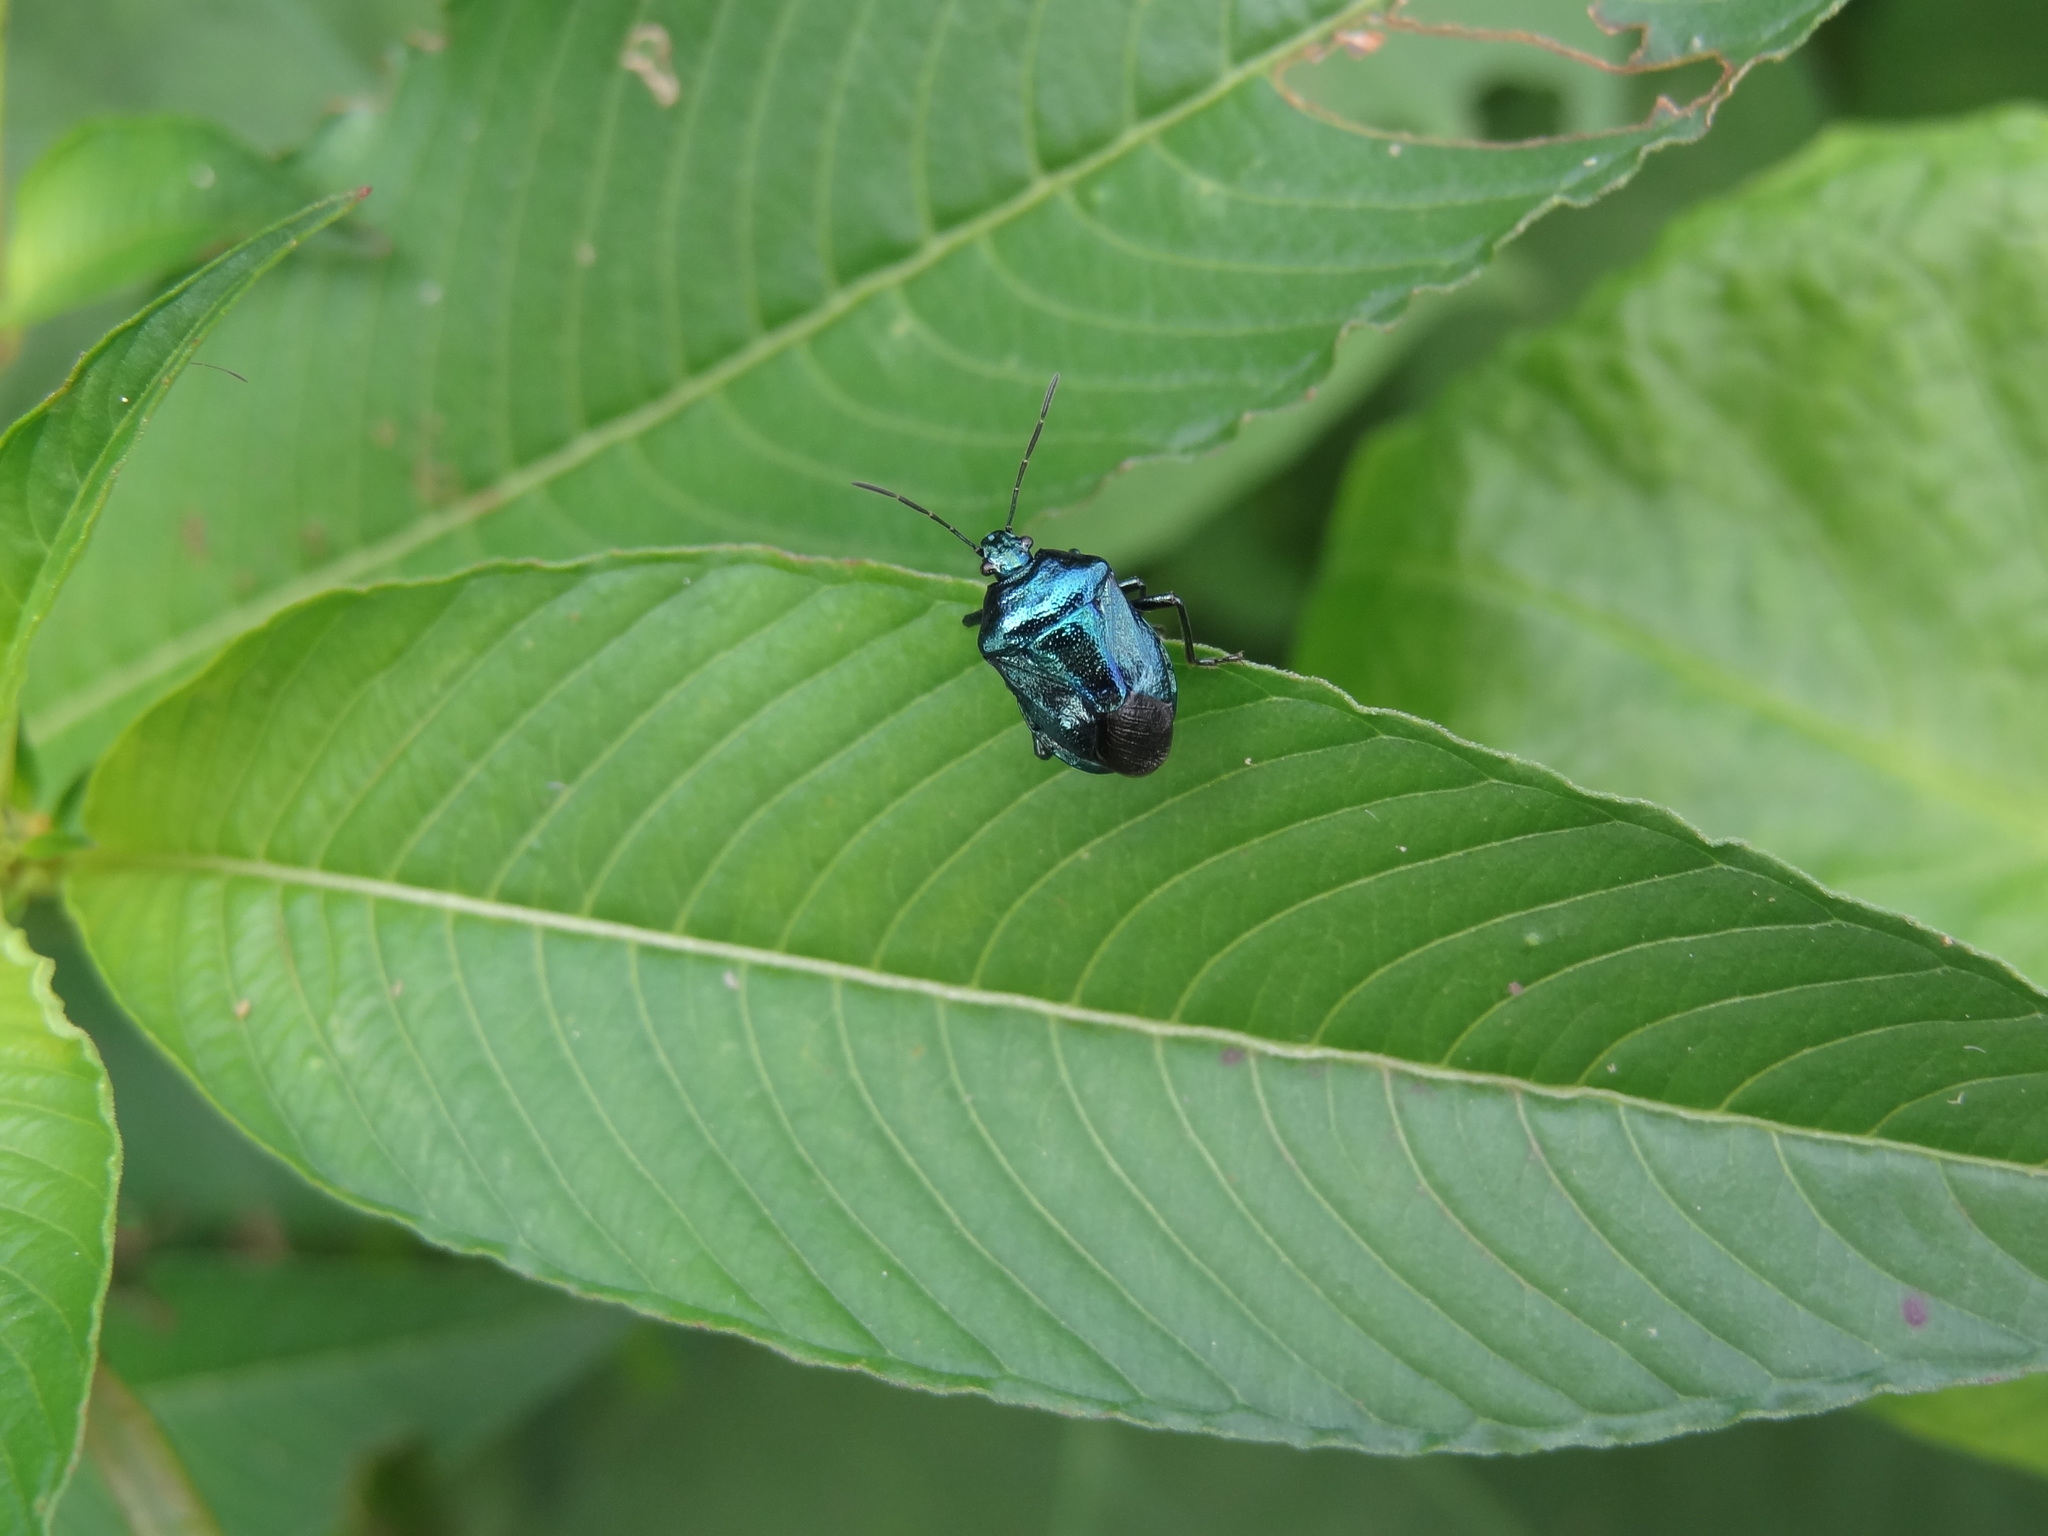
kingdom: Animalia
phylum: Arthropoda
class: Insecta
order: Hemiptera
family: Pentatomidae
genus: Zicrona
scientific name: Zicrona caerulea
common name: Blue shieldbug
